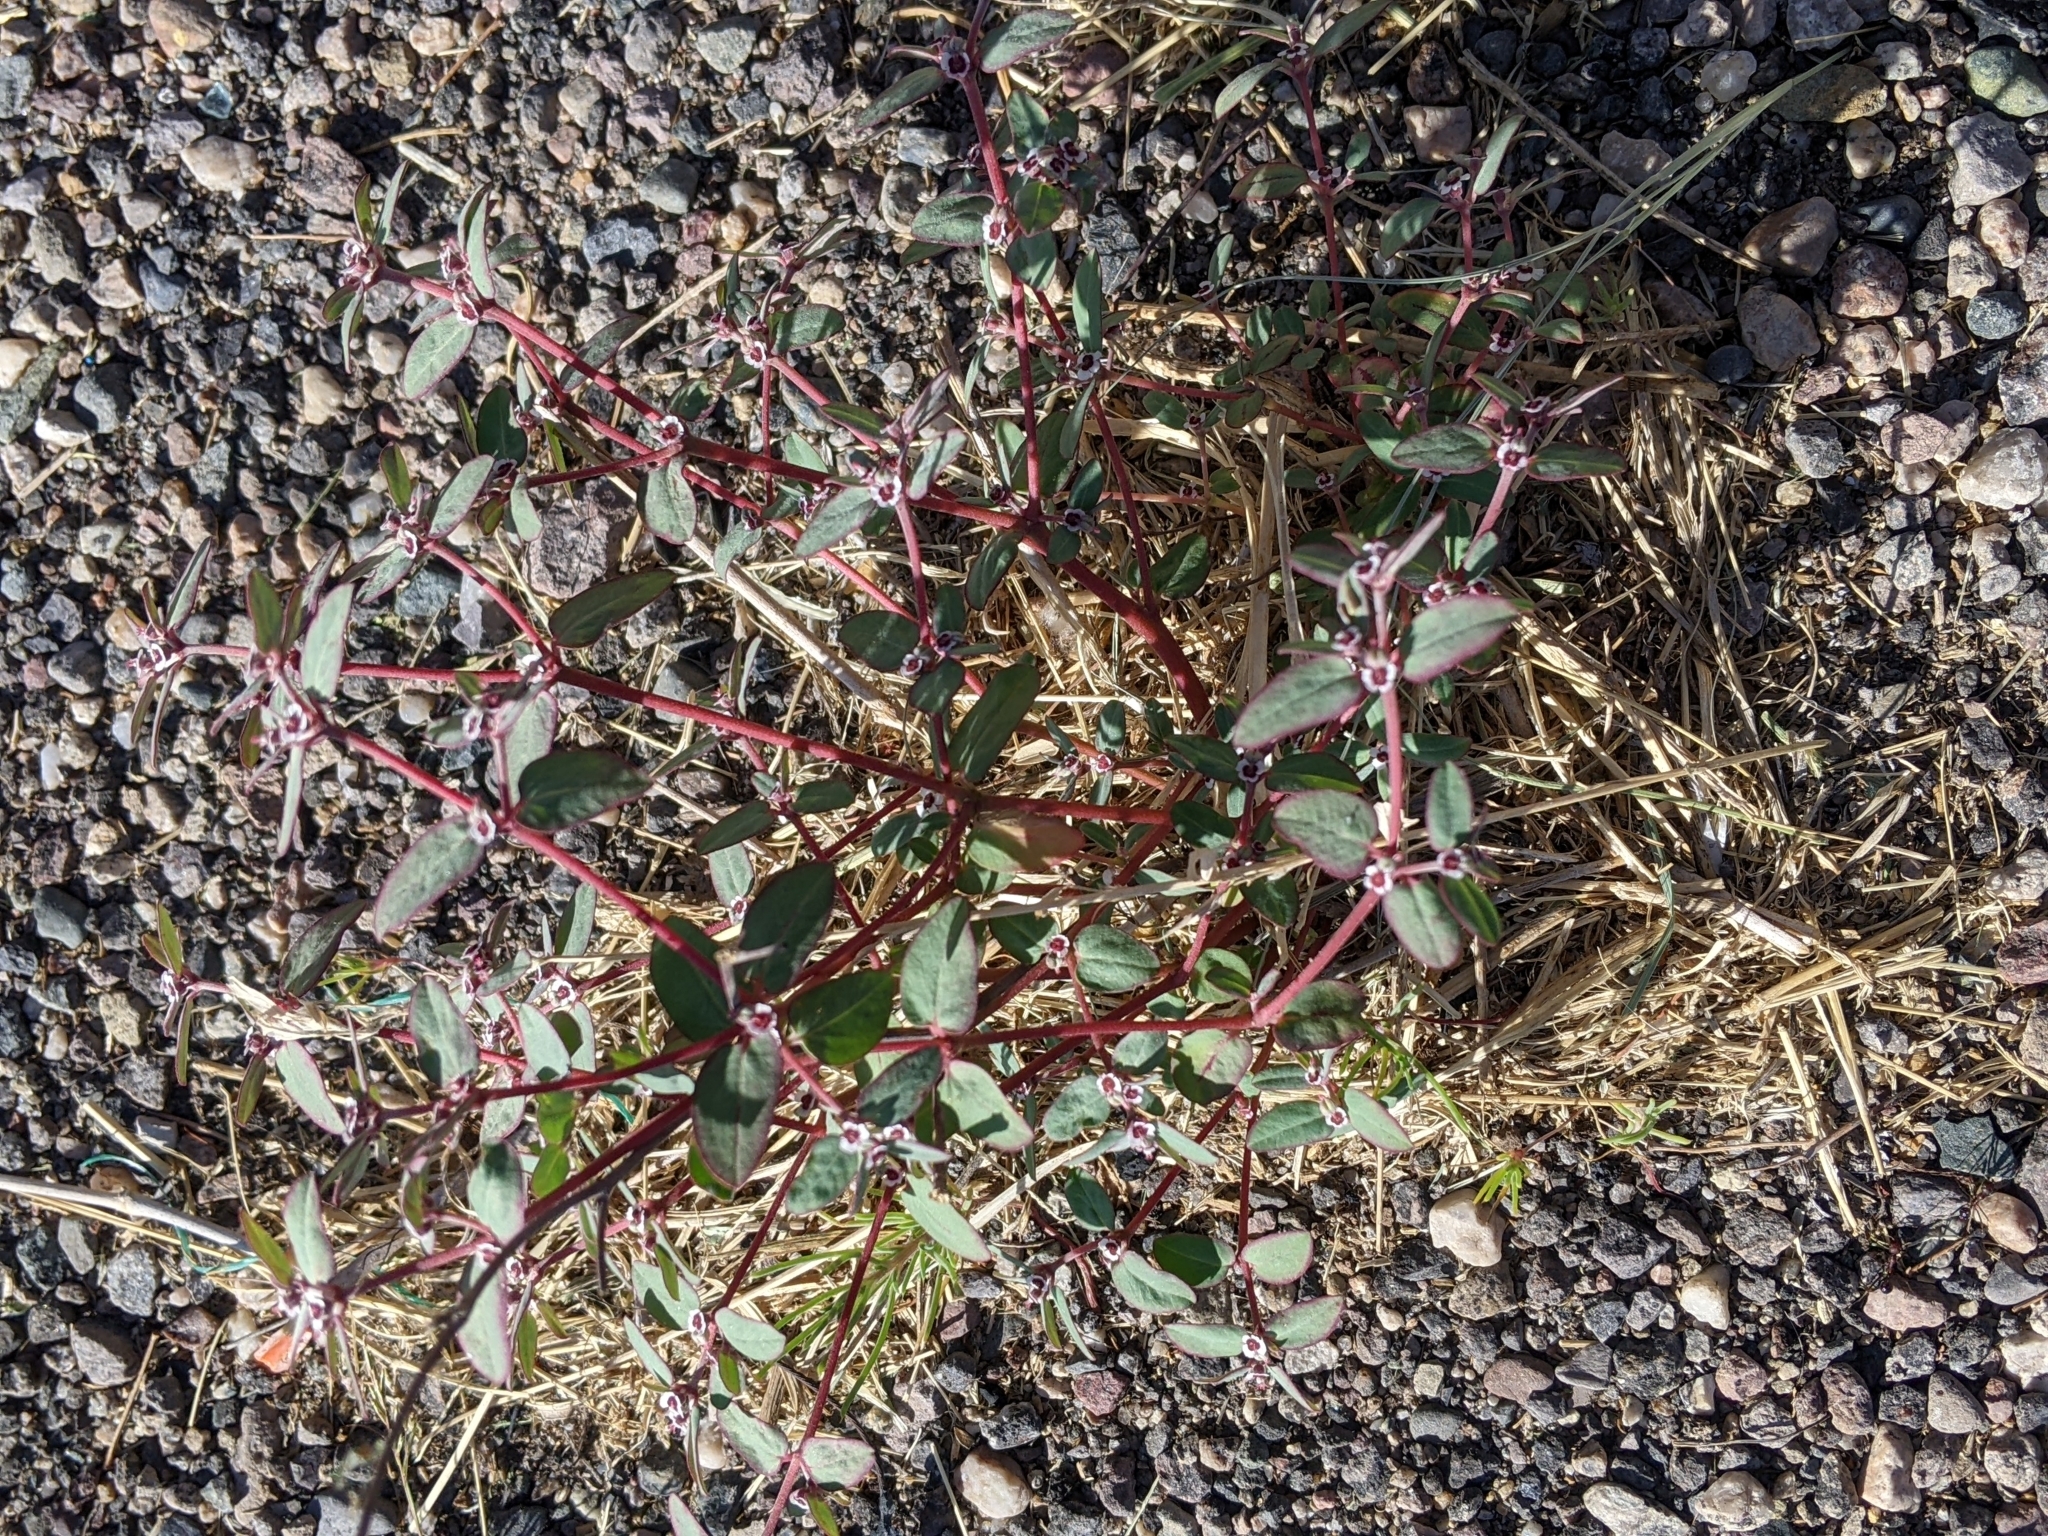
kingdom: Plantae
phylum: Tracheophyta
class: Magnoliopsida
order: Malpighiales
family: Euphorbiaceae
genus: Euphorbia
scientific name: Euphorbia pediculifera
